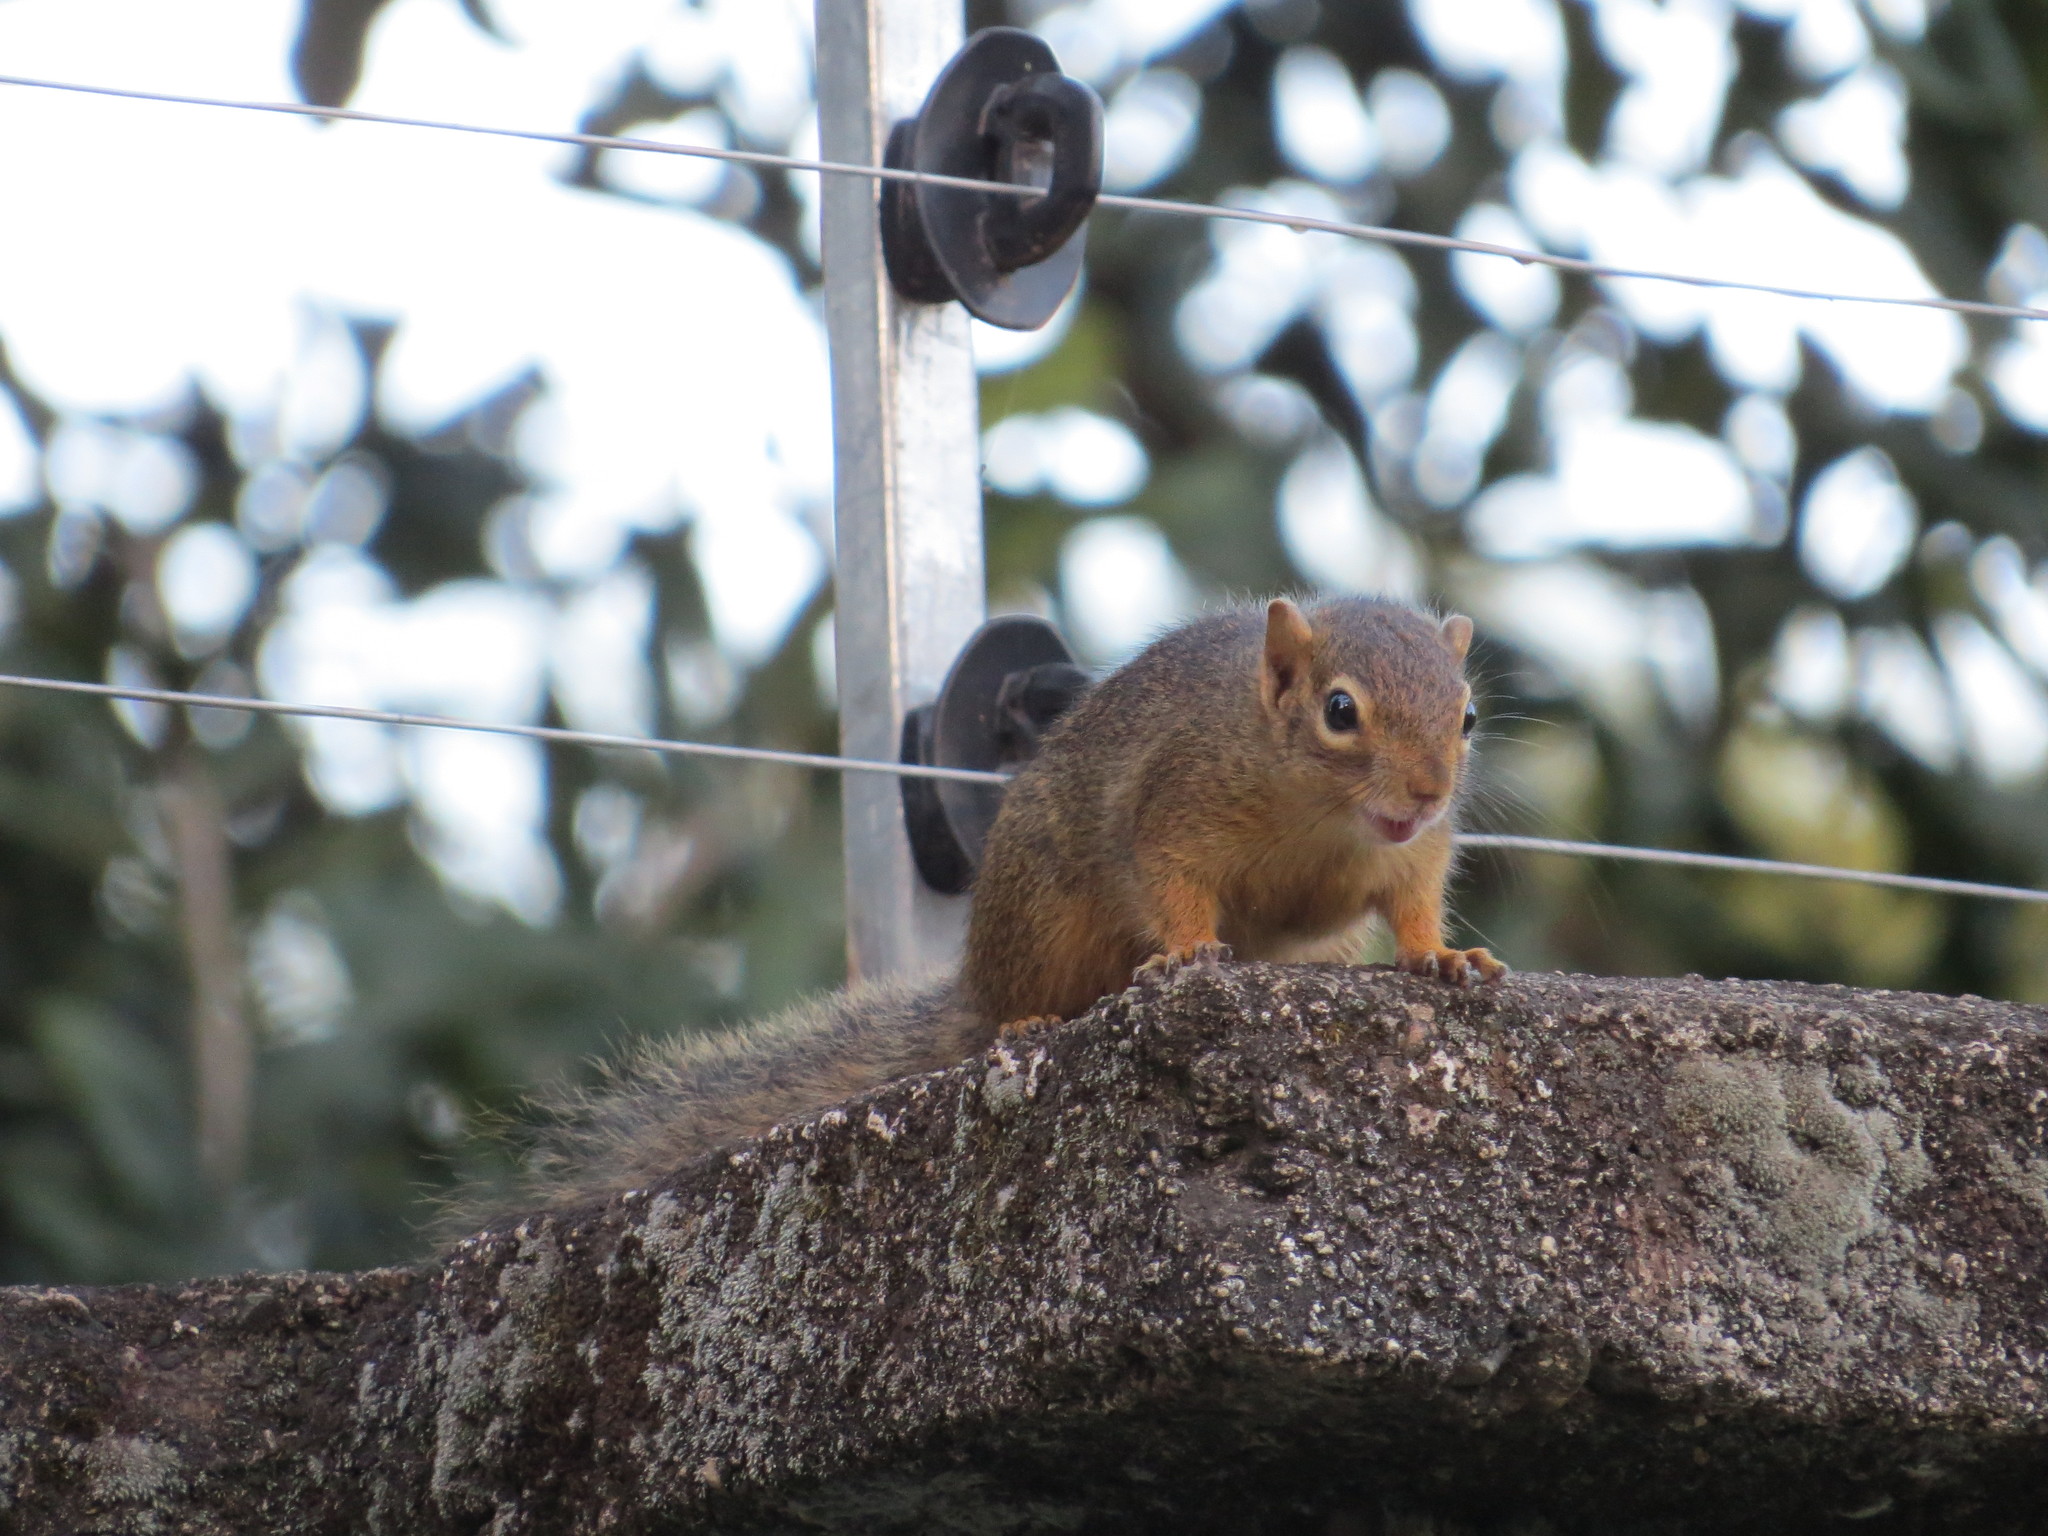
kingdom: Animalia
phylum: Chordata
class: Mammalia
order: Rodentia
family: Sciuridae
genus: Paraxerus
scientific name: Paraxerus ochraceus
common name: Ochre bush squirrel
